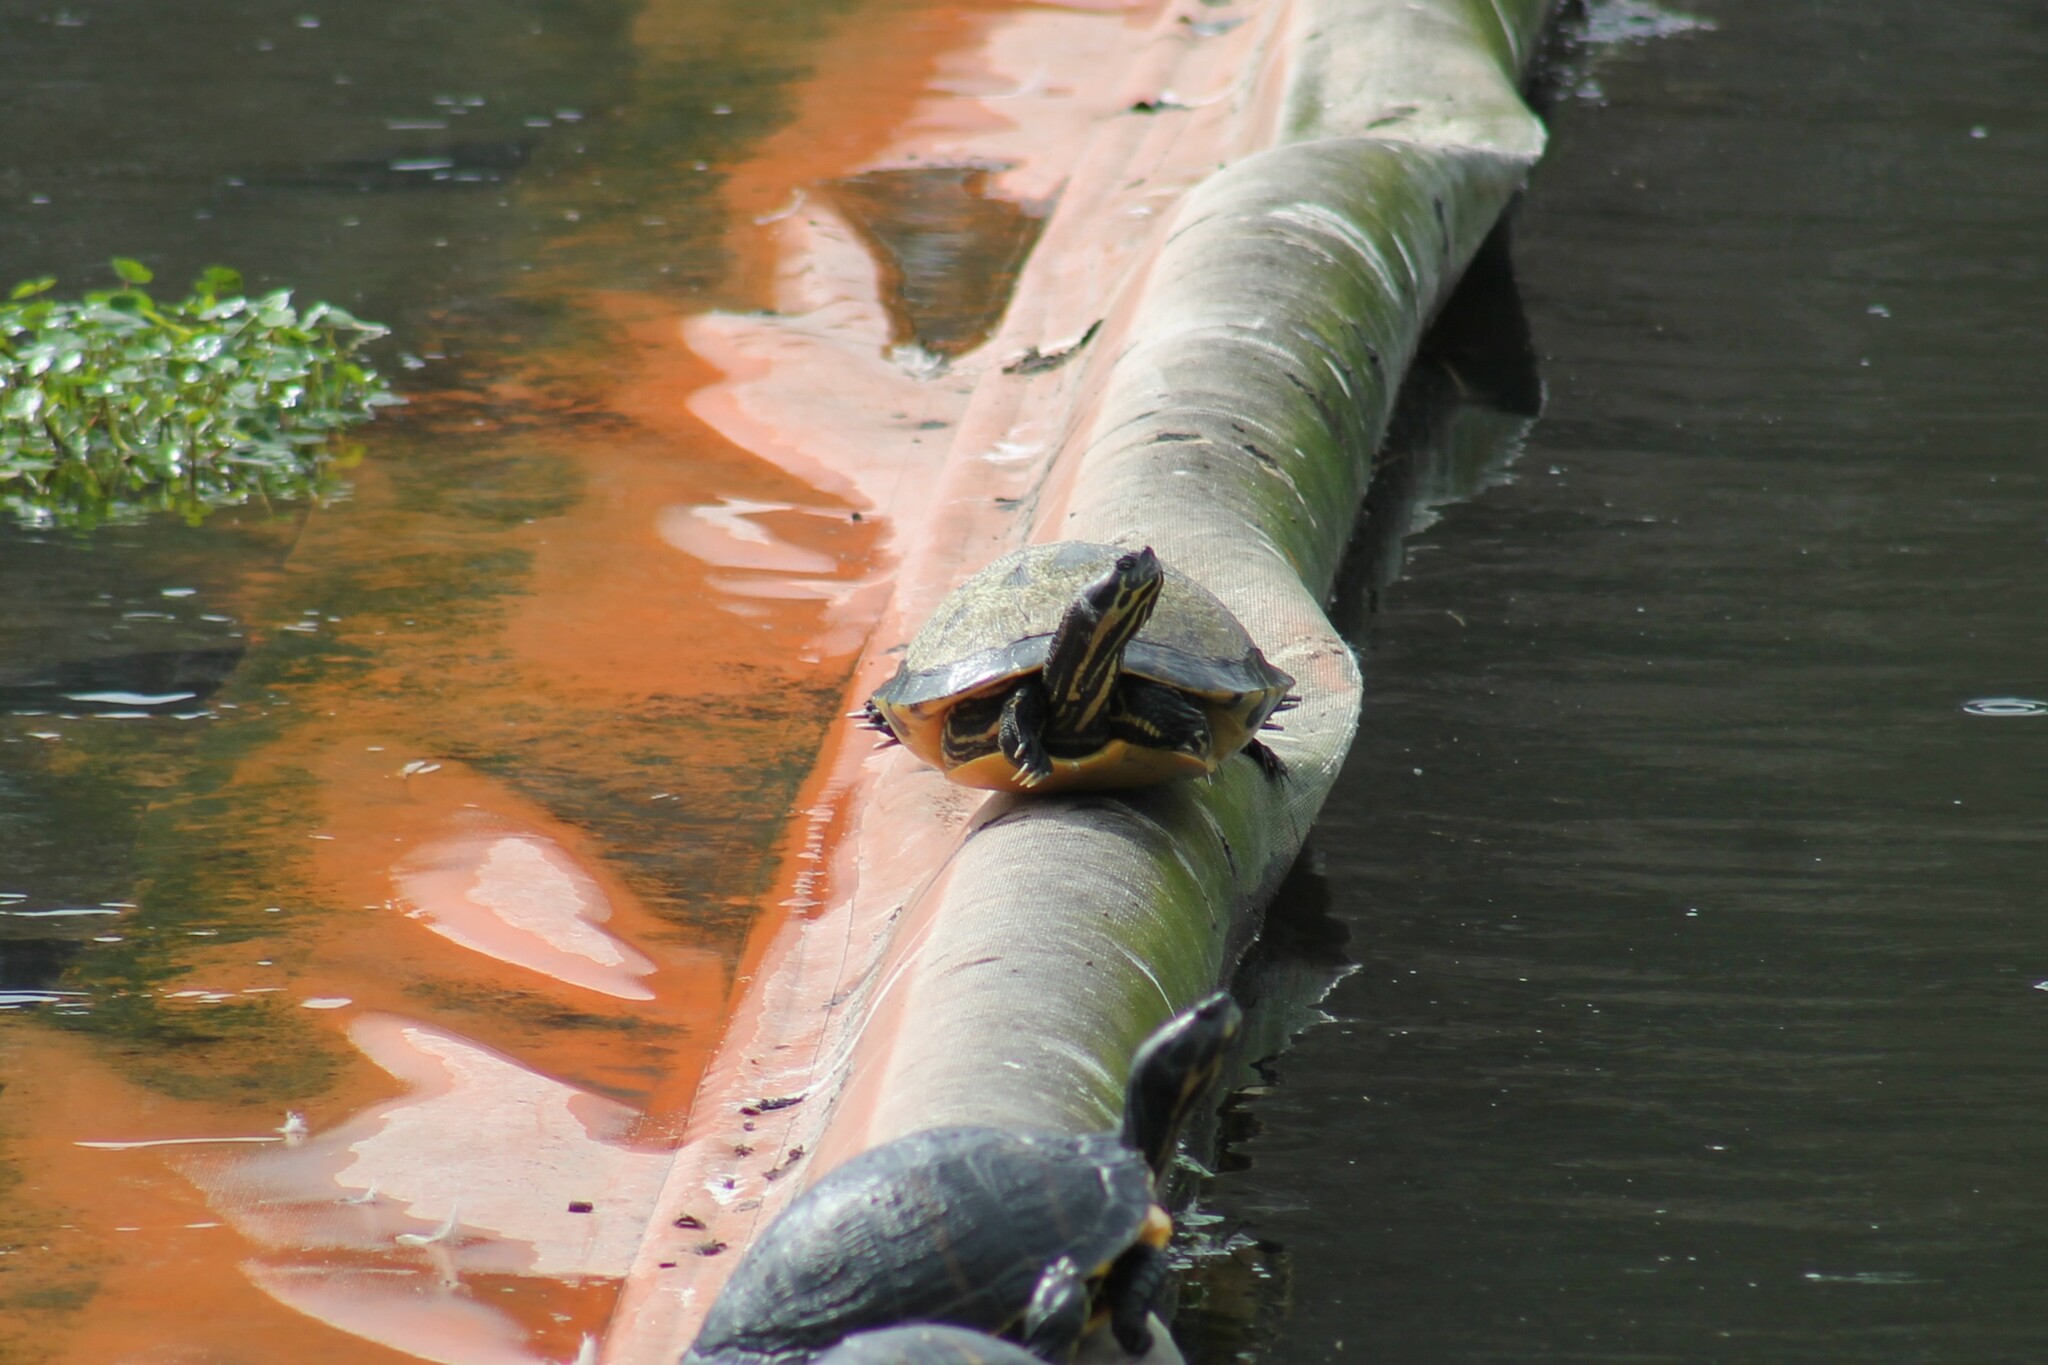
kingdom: Animalia
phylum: Chordata
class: Testudines
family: Emydidae
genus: Pseudemys
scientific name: Pseudemys concinna
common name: Eastern river cooter
